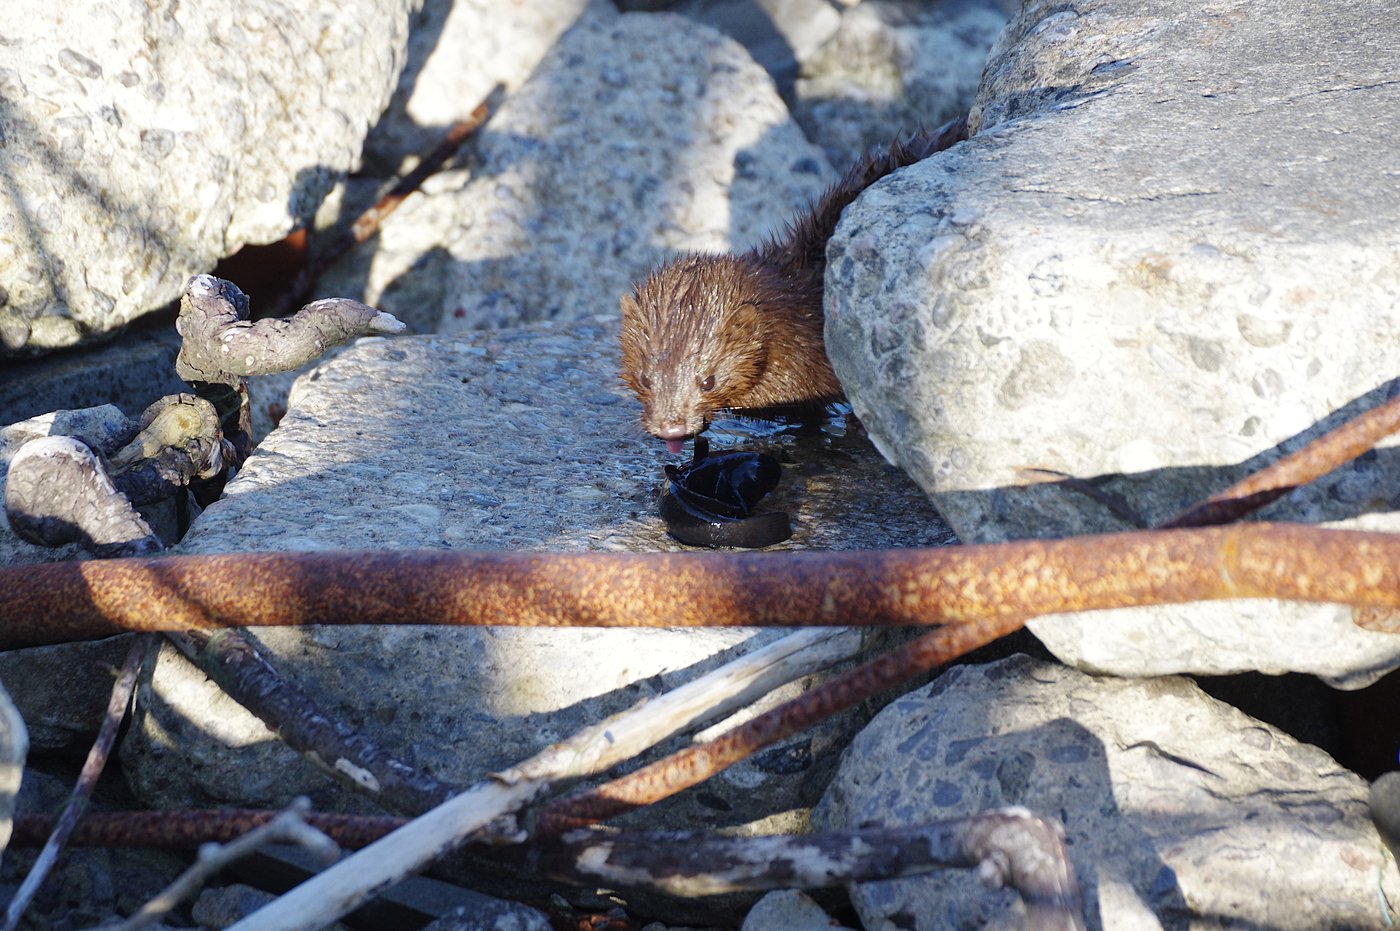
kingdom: Animalia
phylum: Chordata
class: Mammalia
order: Carnivora
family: Mustelidae
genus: Mustela
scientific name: Mustela
